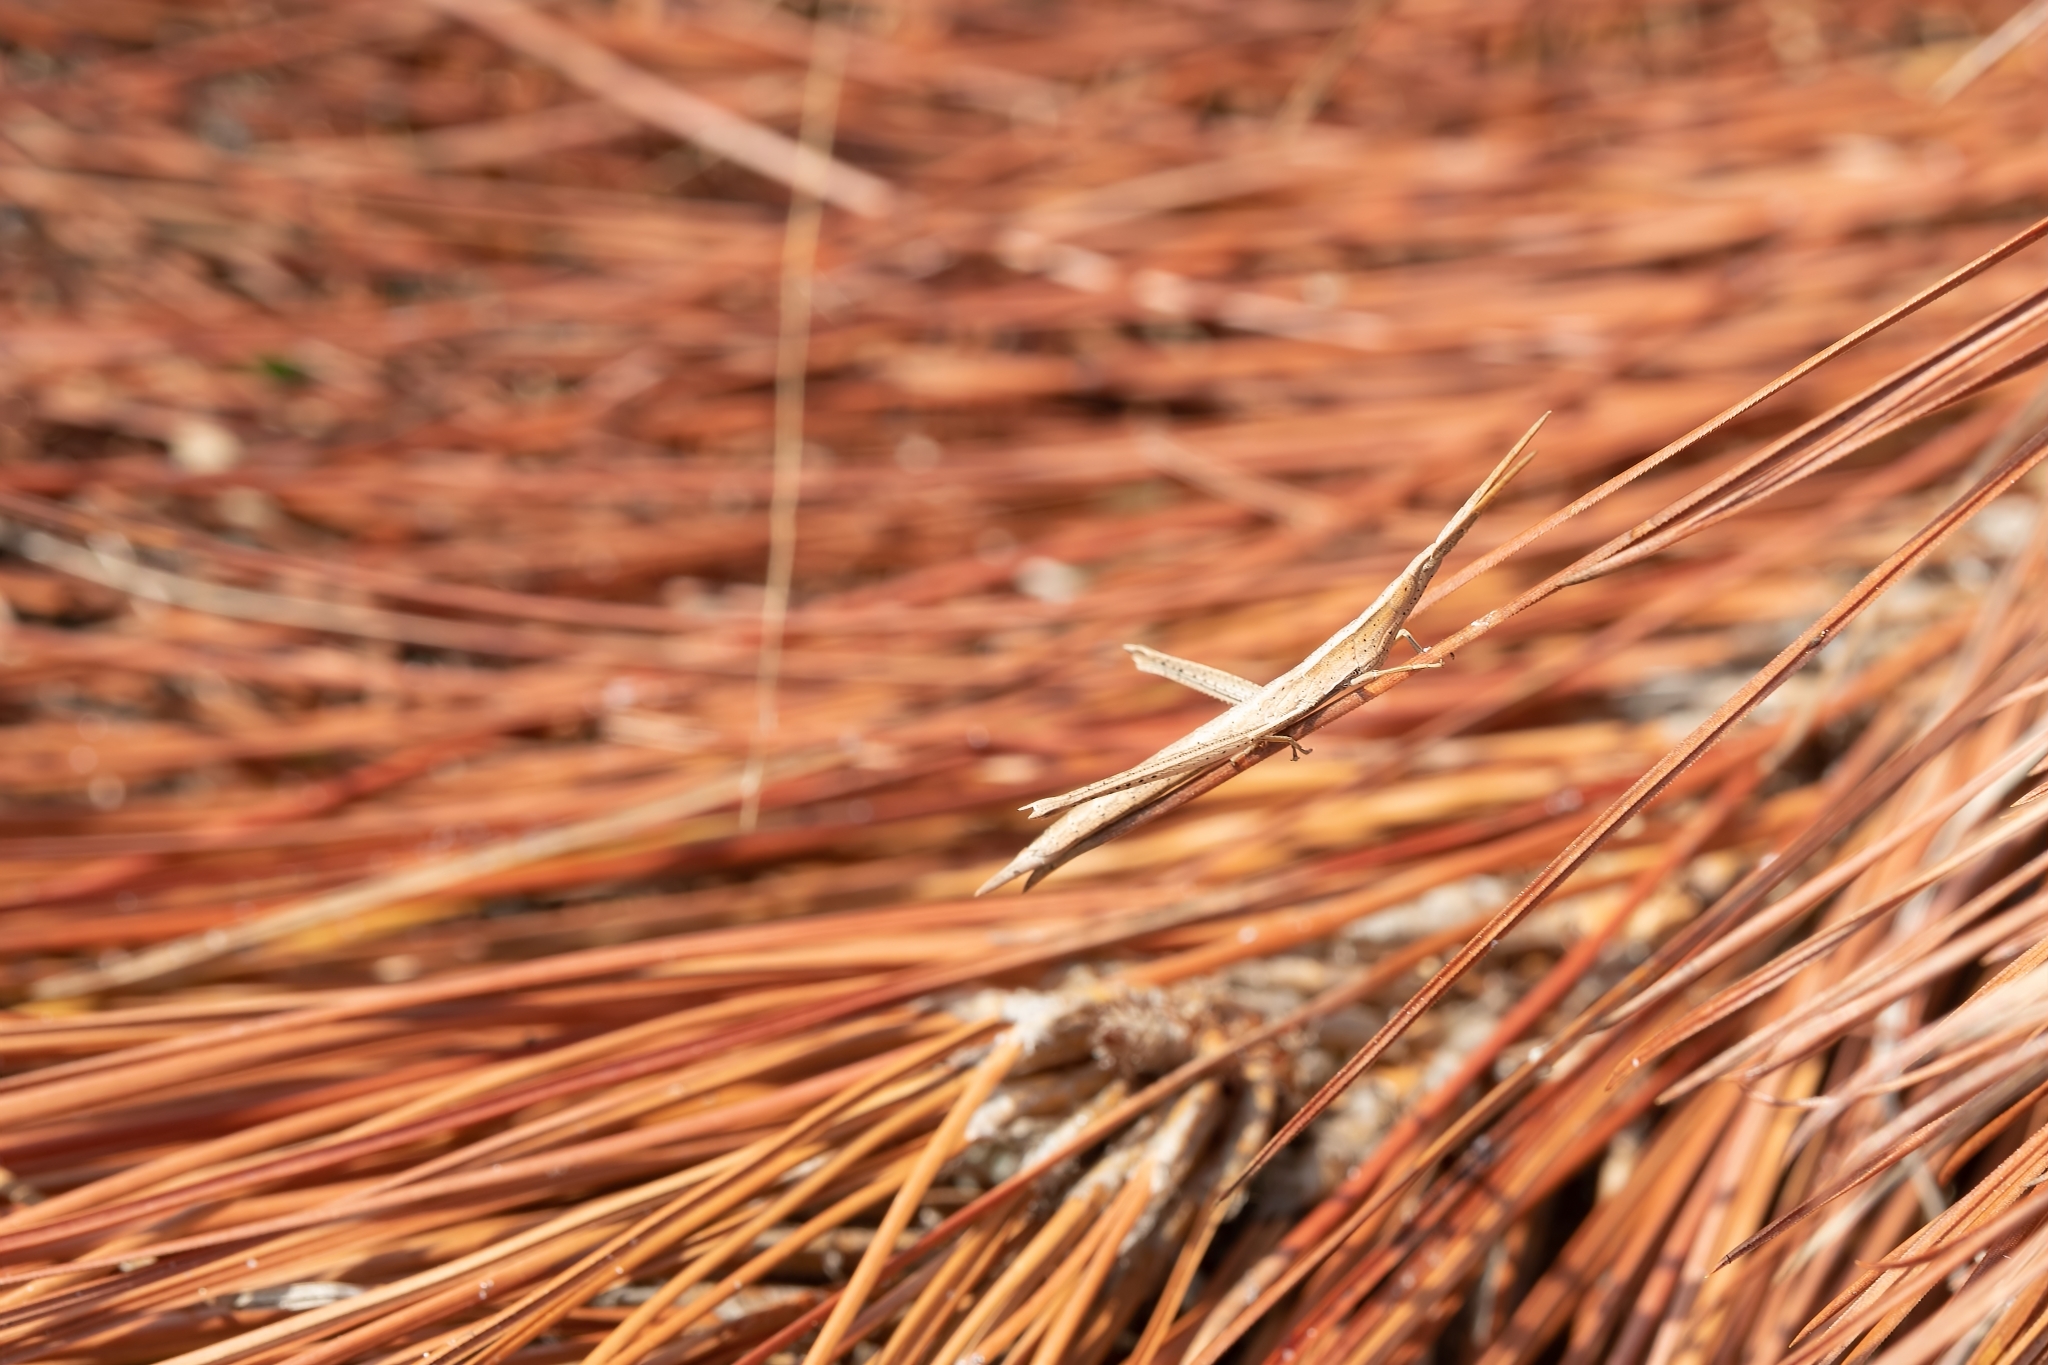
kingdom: Animalia
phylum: Arthropoda
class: Insecta
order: Orthoptera
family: Acrididae
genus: Achurum
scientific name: Achurum carinatum
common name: Long-headed toothpick grasshopper
